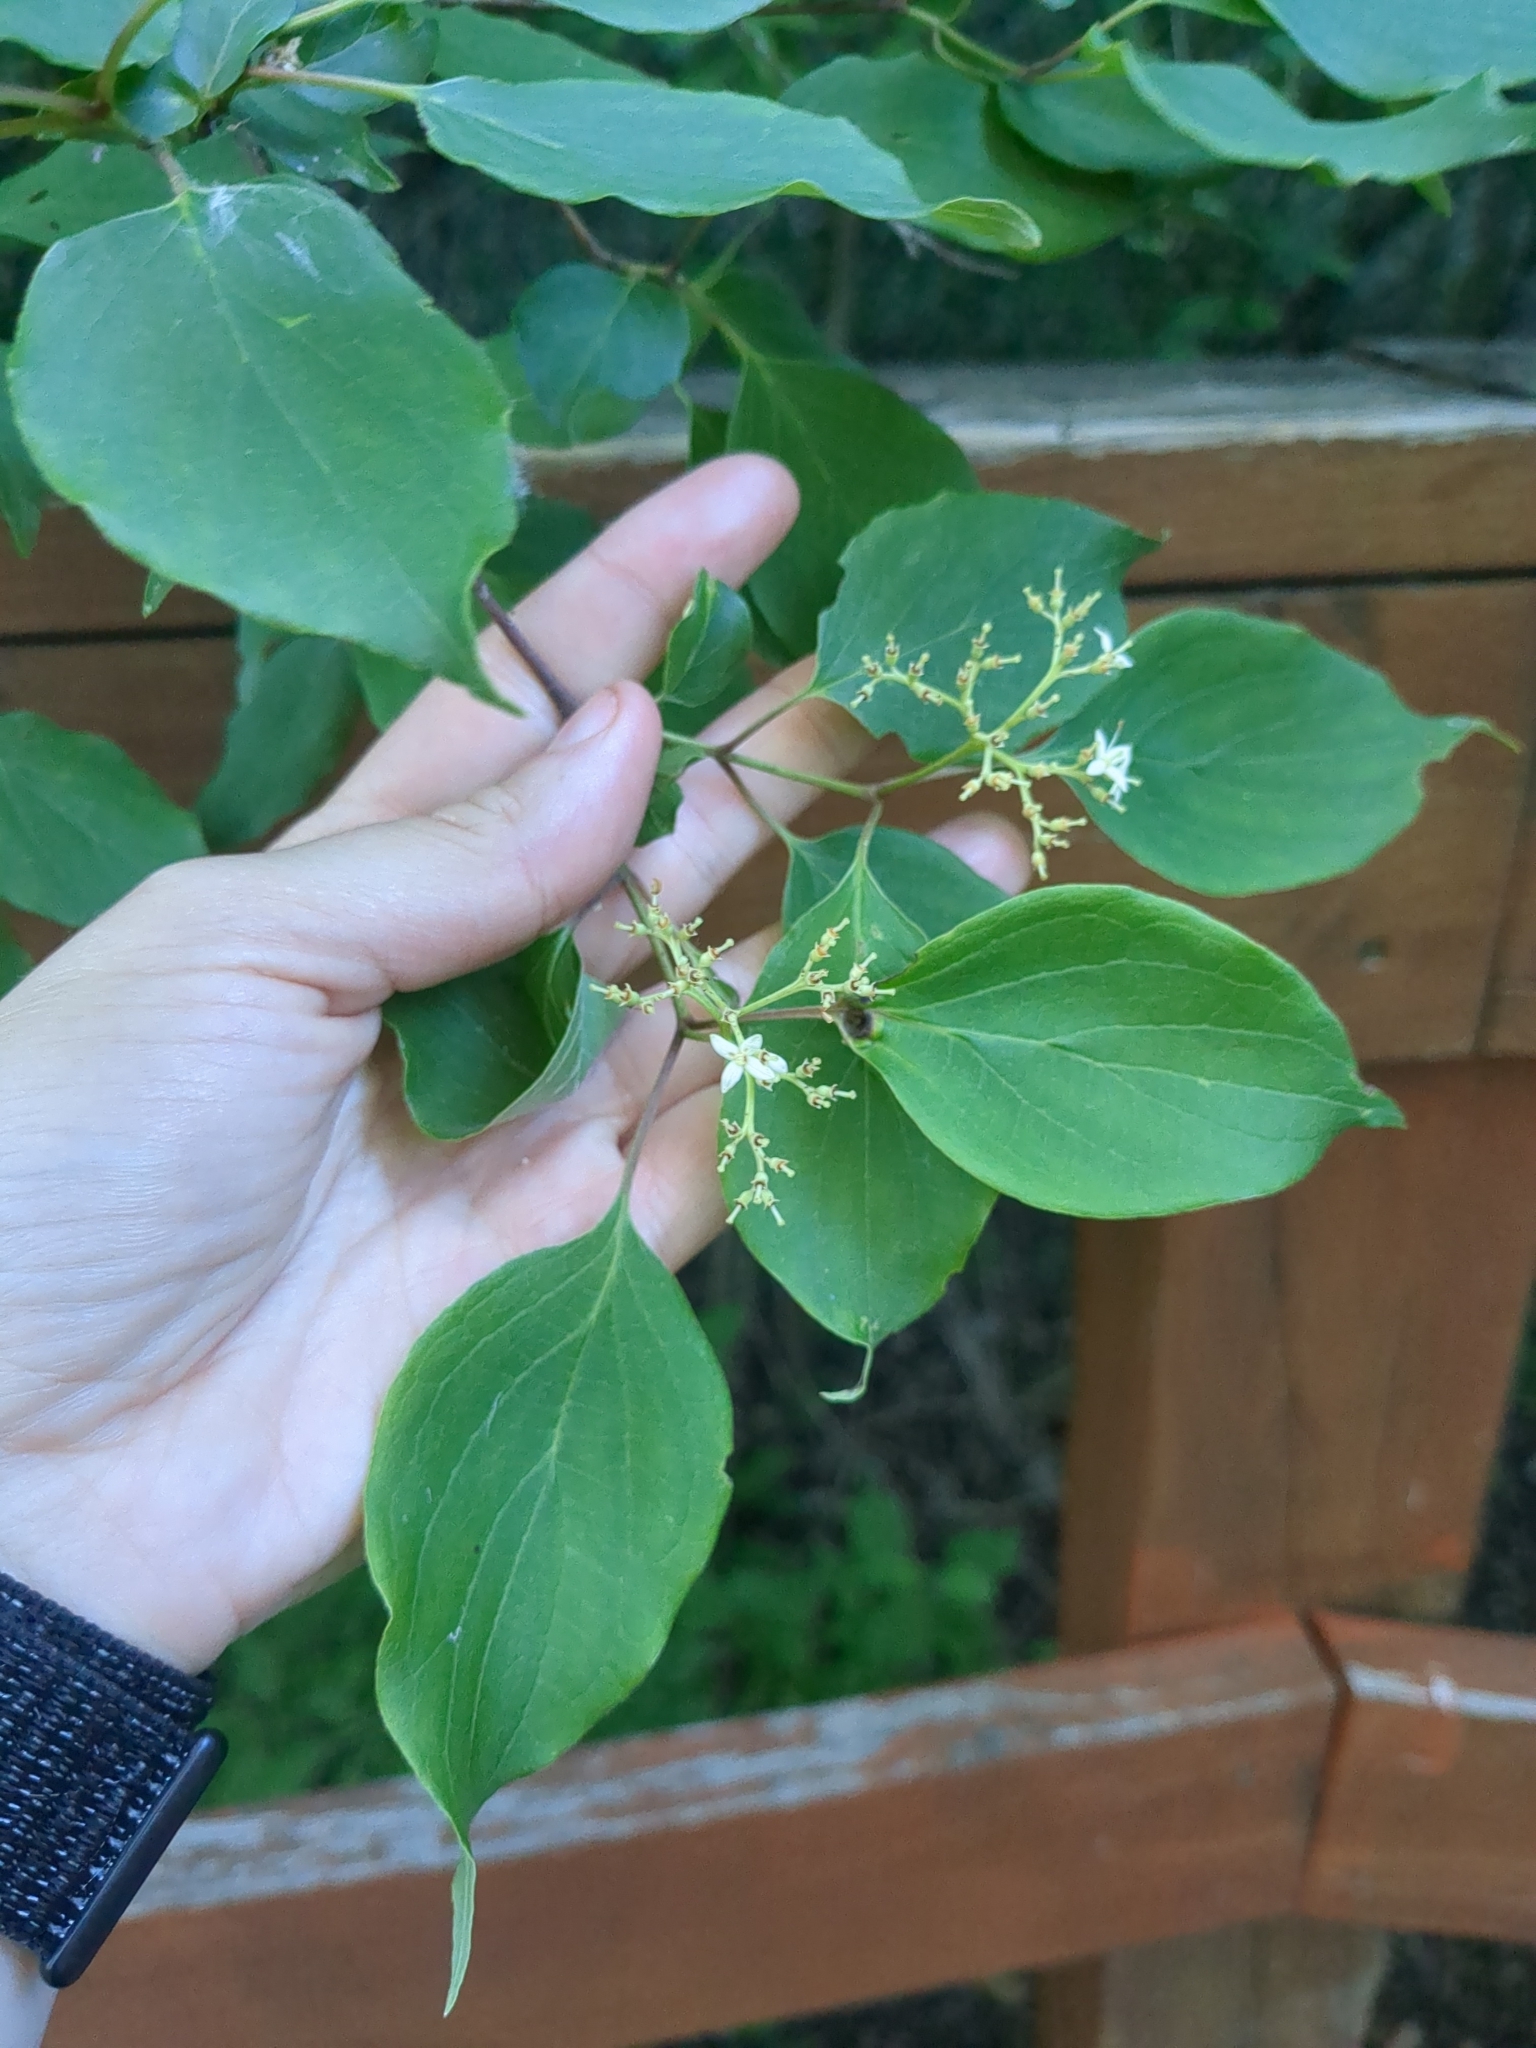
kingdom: Plantae
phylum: Tracheophyta
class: Magnoliopsida
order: Cornales
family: Cornaceae
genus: Cornus
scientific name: Cornus drummondii
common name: Rough-leaf dogwood
